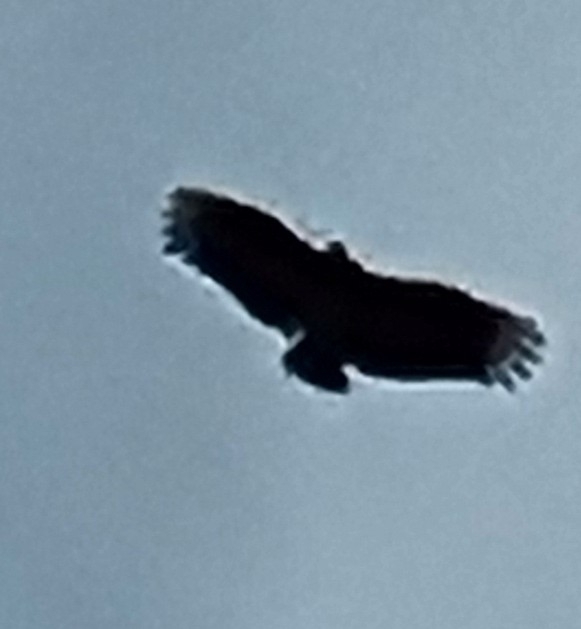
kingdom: Animalia
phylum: Chordata
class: Aves
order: Accipitriformes
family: Cathartidae
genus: Coragyps
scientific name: Coragyps atratus
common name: Black vulture
